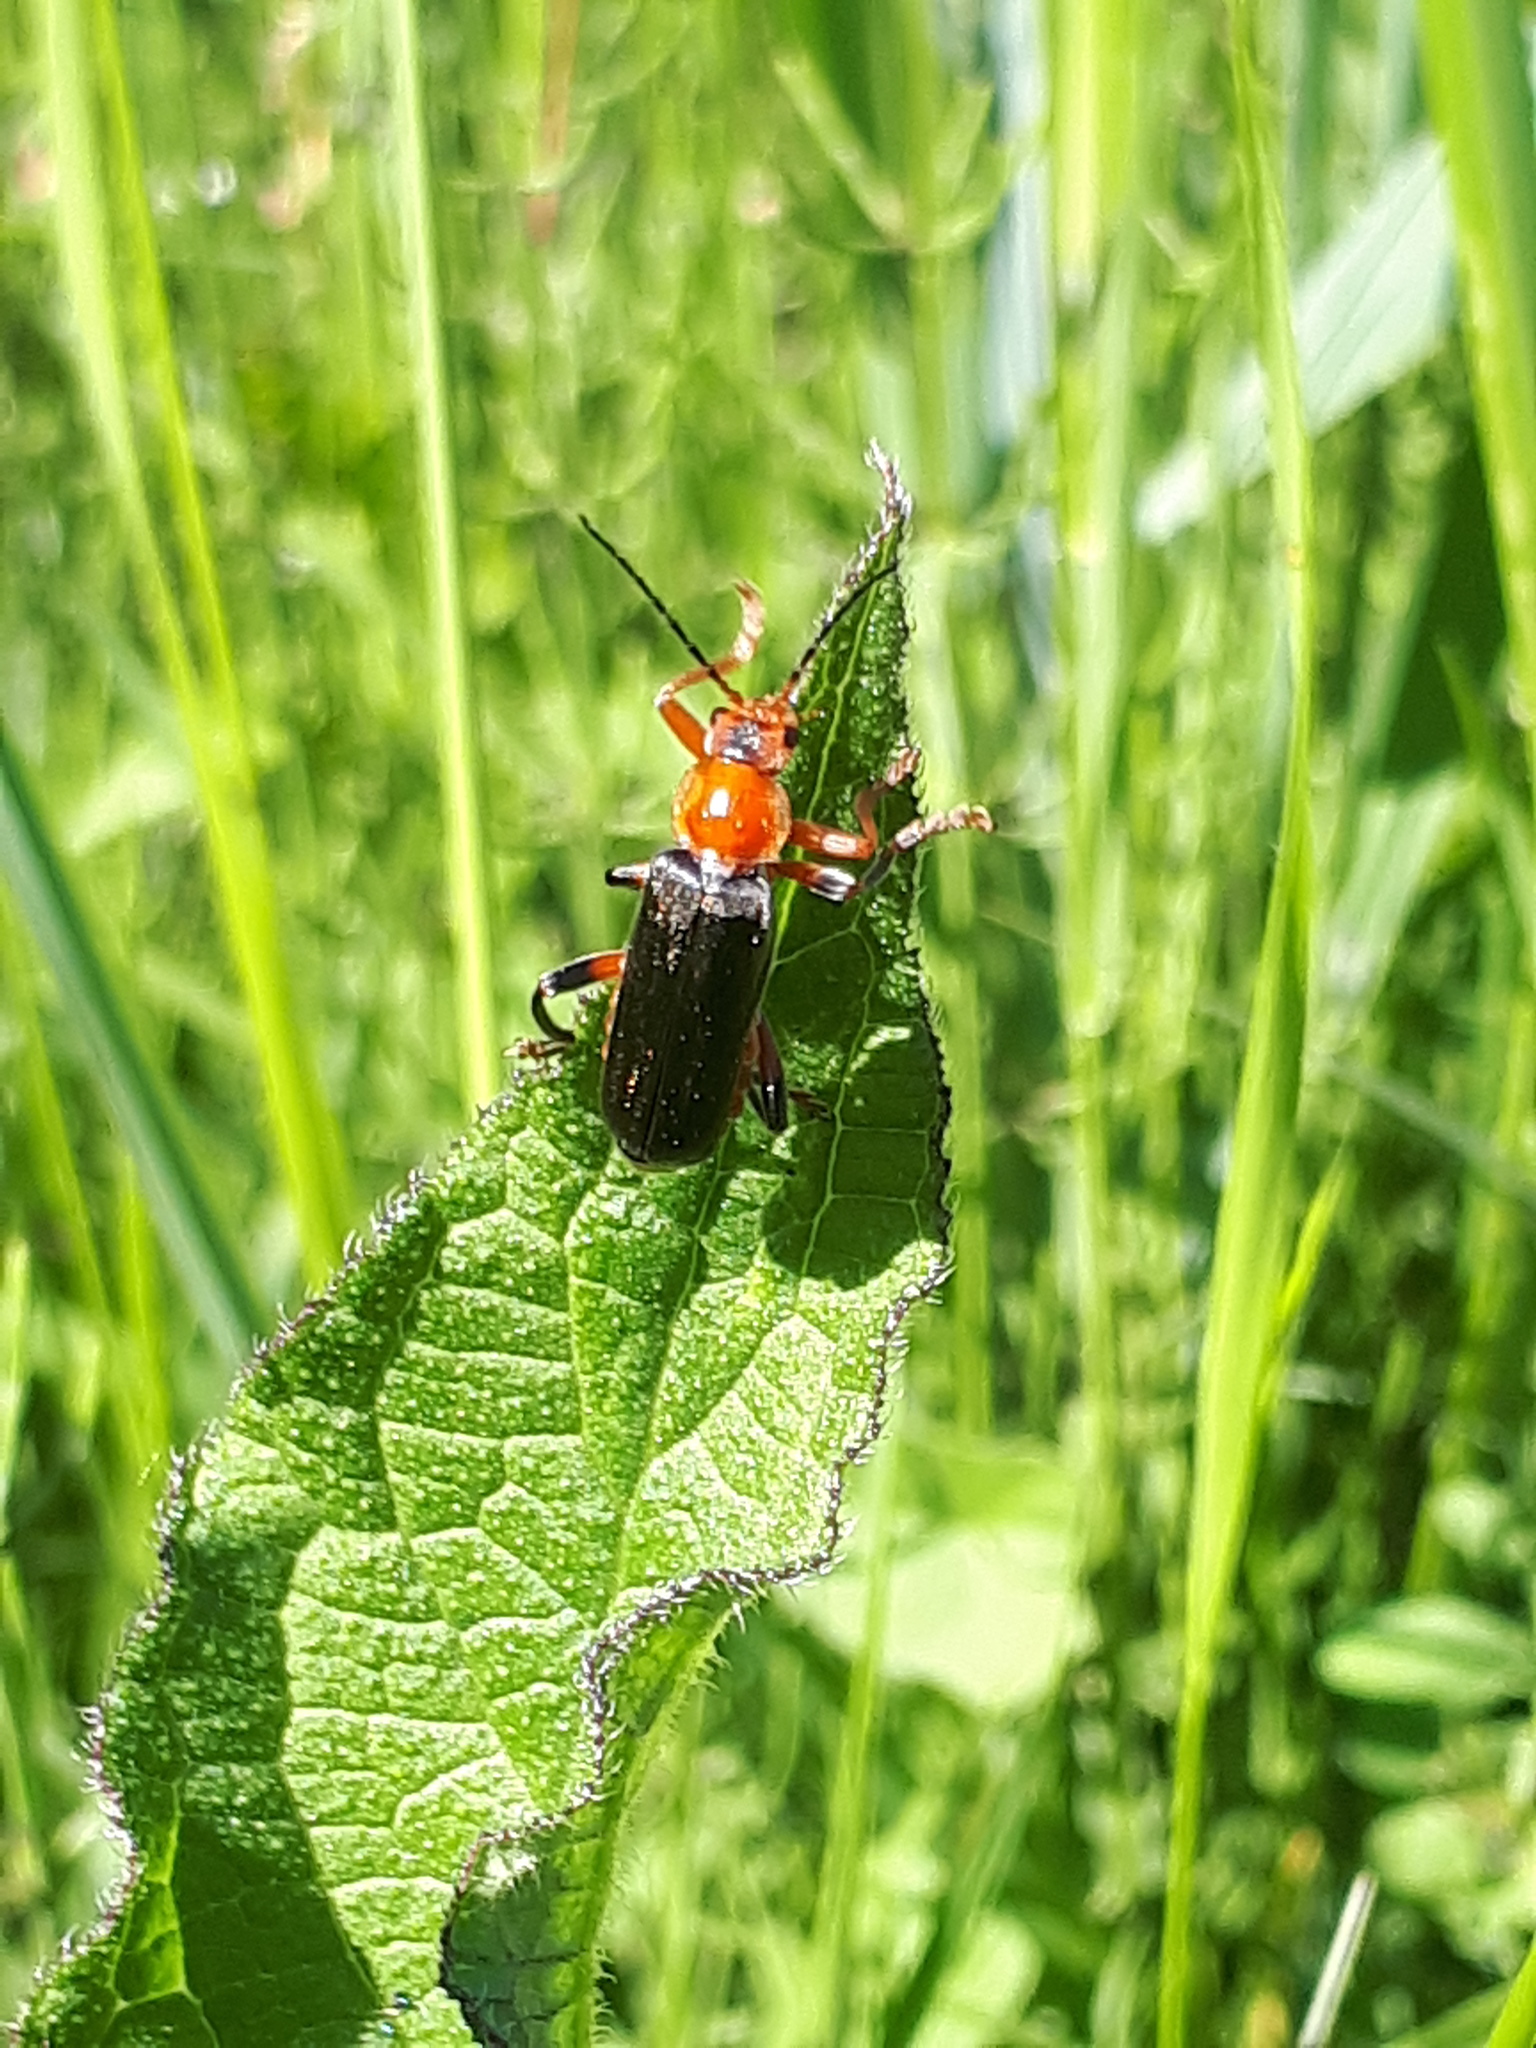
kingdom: Animalia
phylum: Arthropoda
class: Insecta
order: Coleoptera
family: Cantharidae
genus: Cantharis
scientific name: Cantharis livida
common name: Livid soldier beetle
